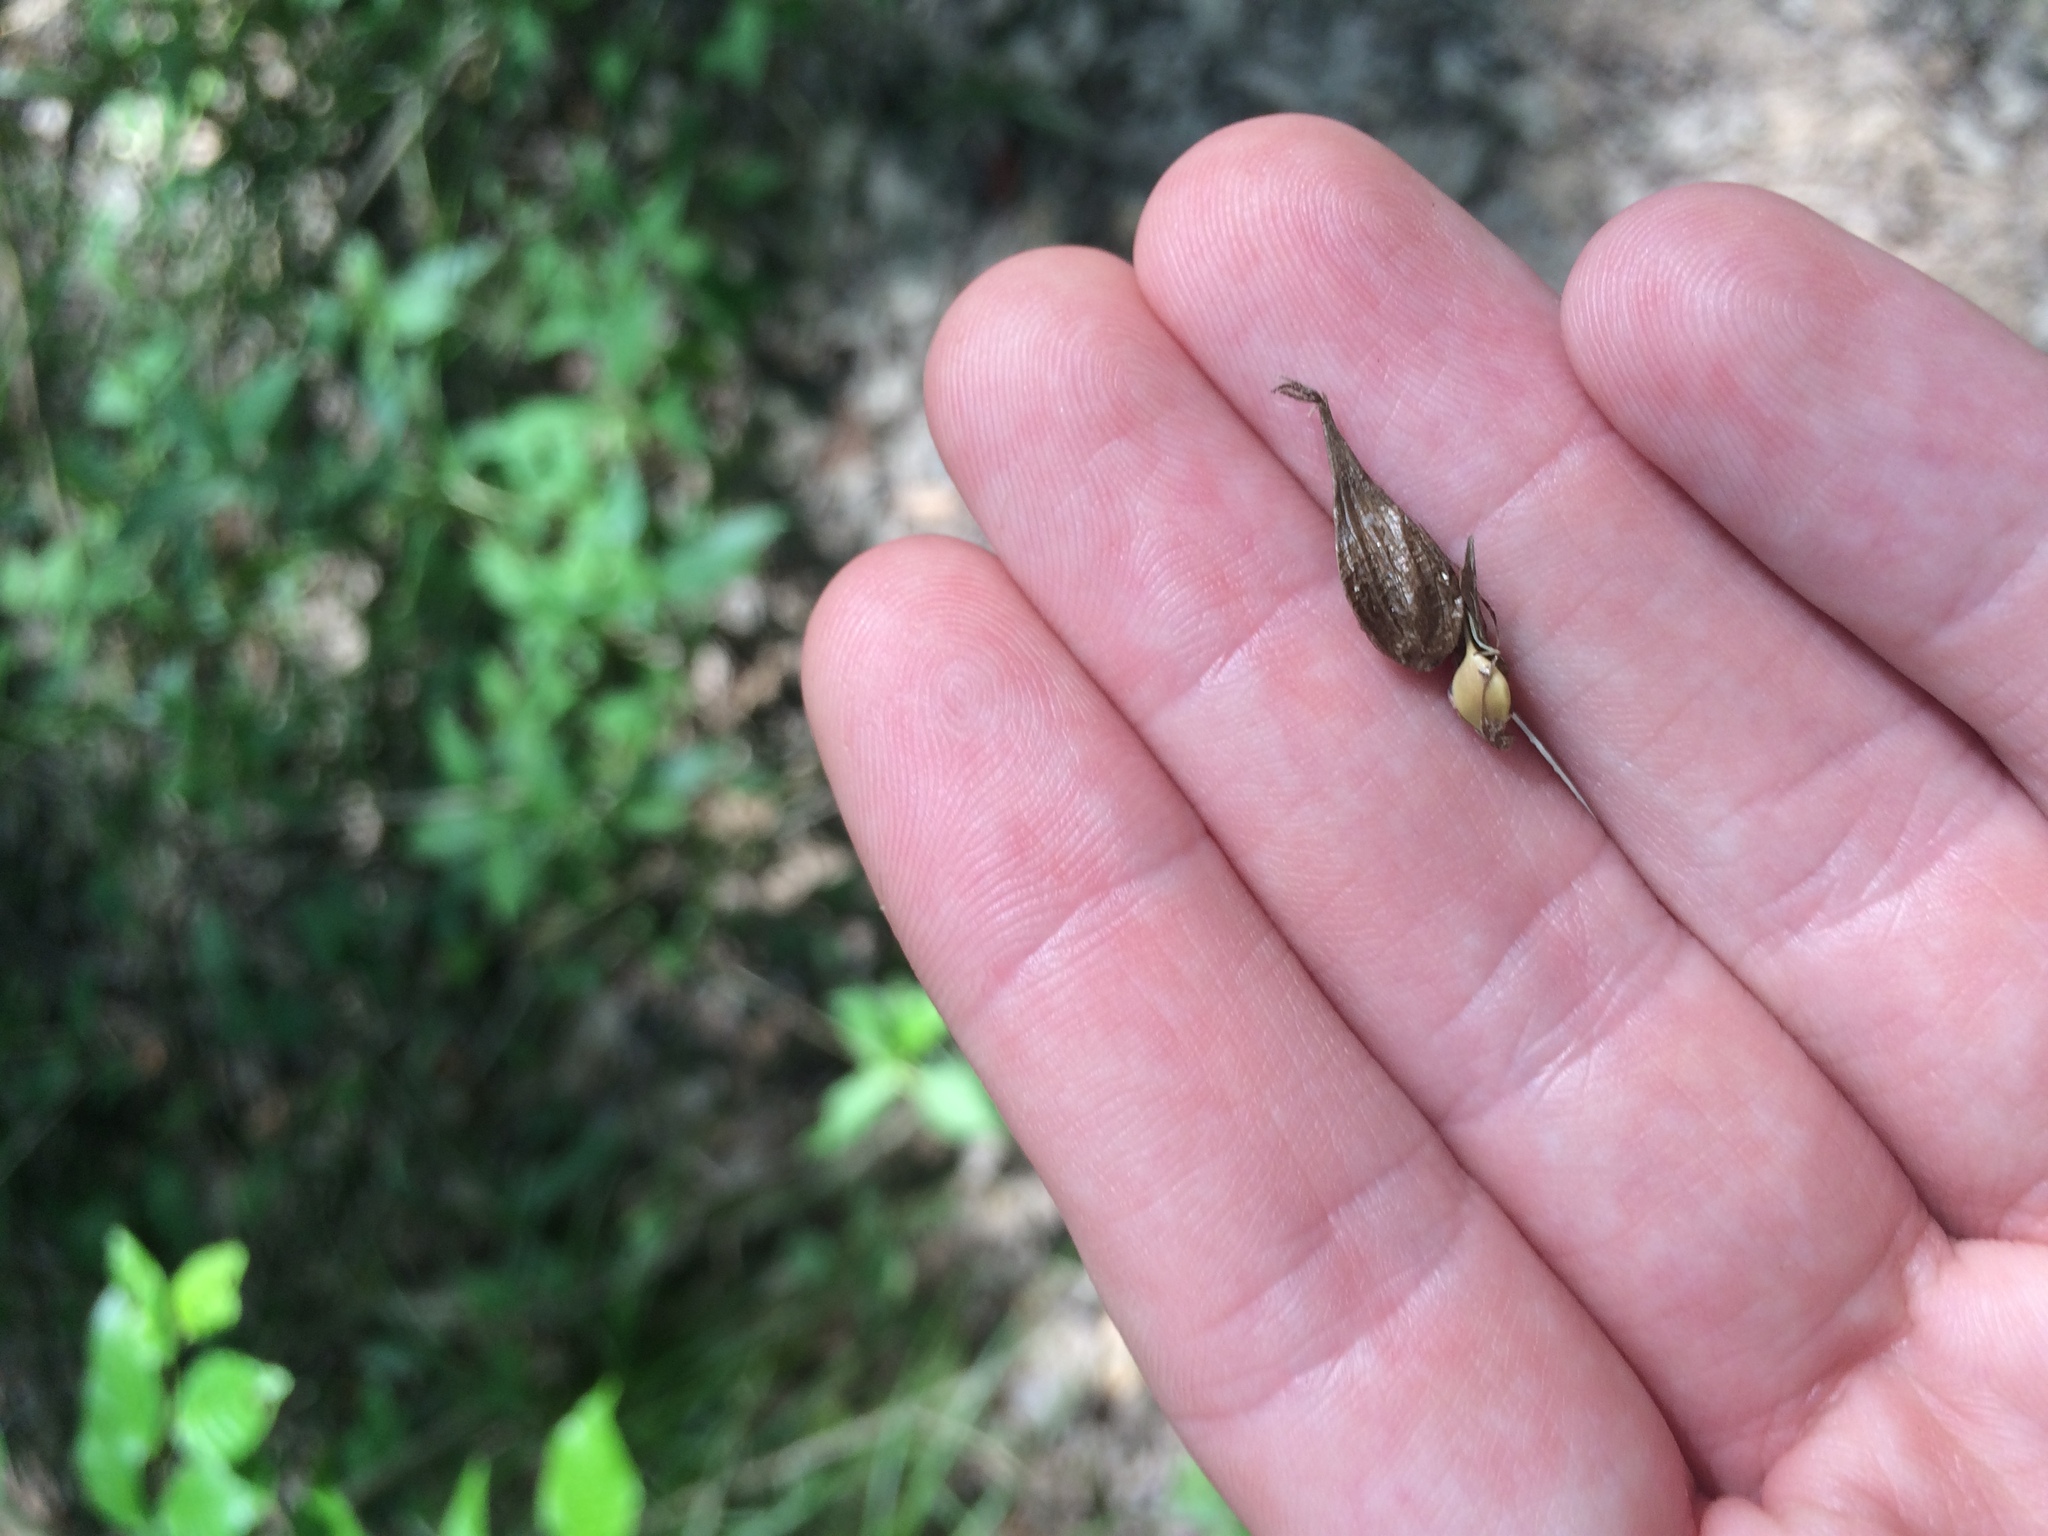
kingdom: Plantae
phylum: Tracheophyta
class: Liliopsida
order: Poales
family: Cyperaceae
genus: Carex
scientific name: Carex intumescens
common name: Greater bladder sedge
